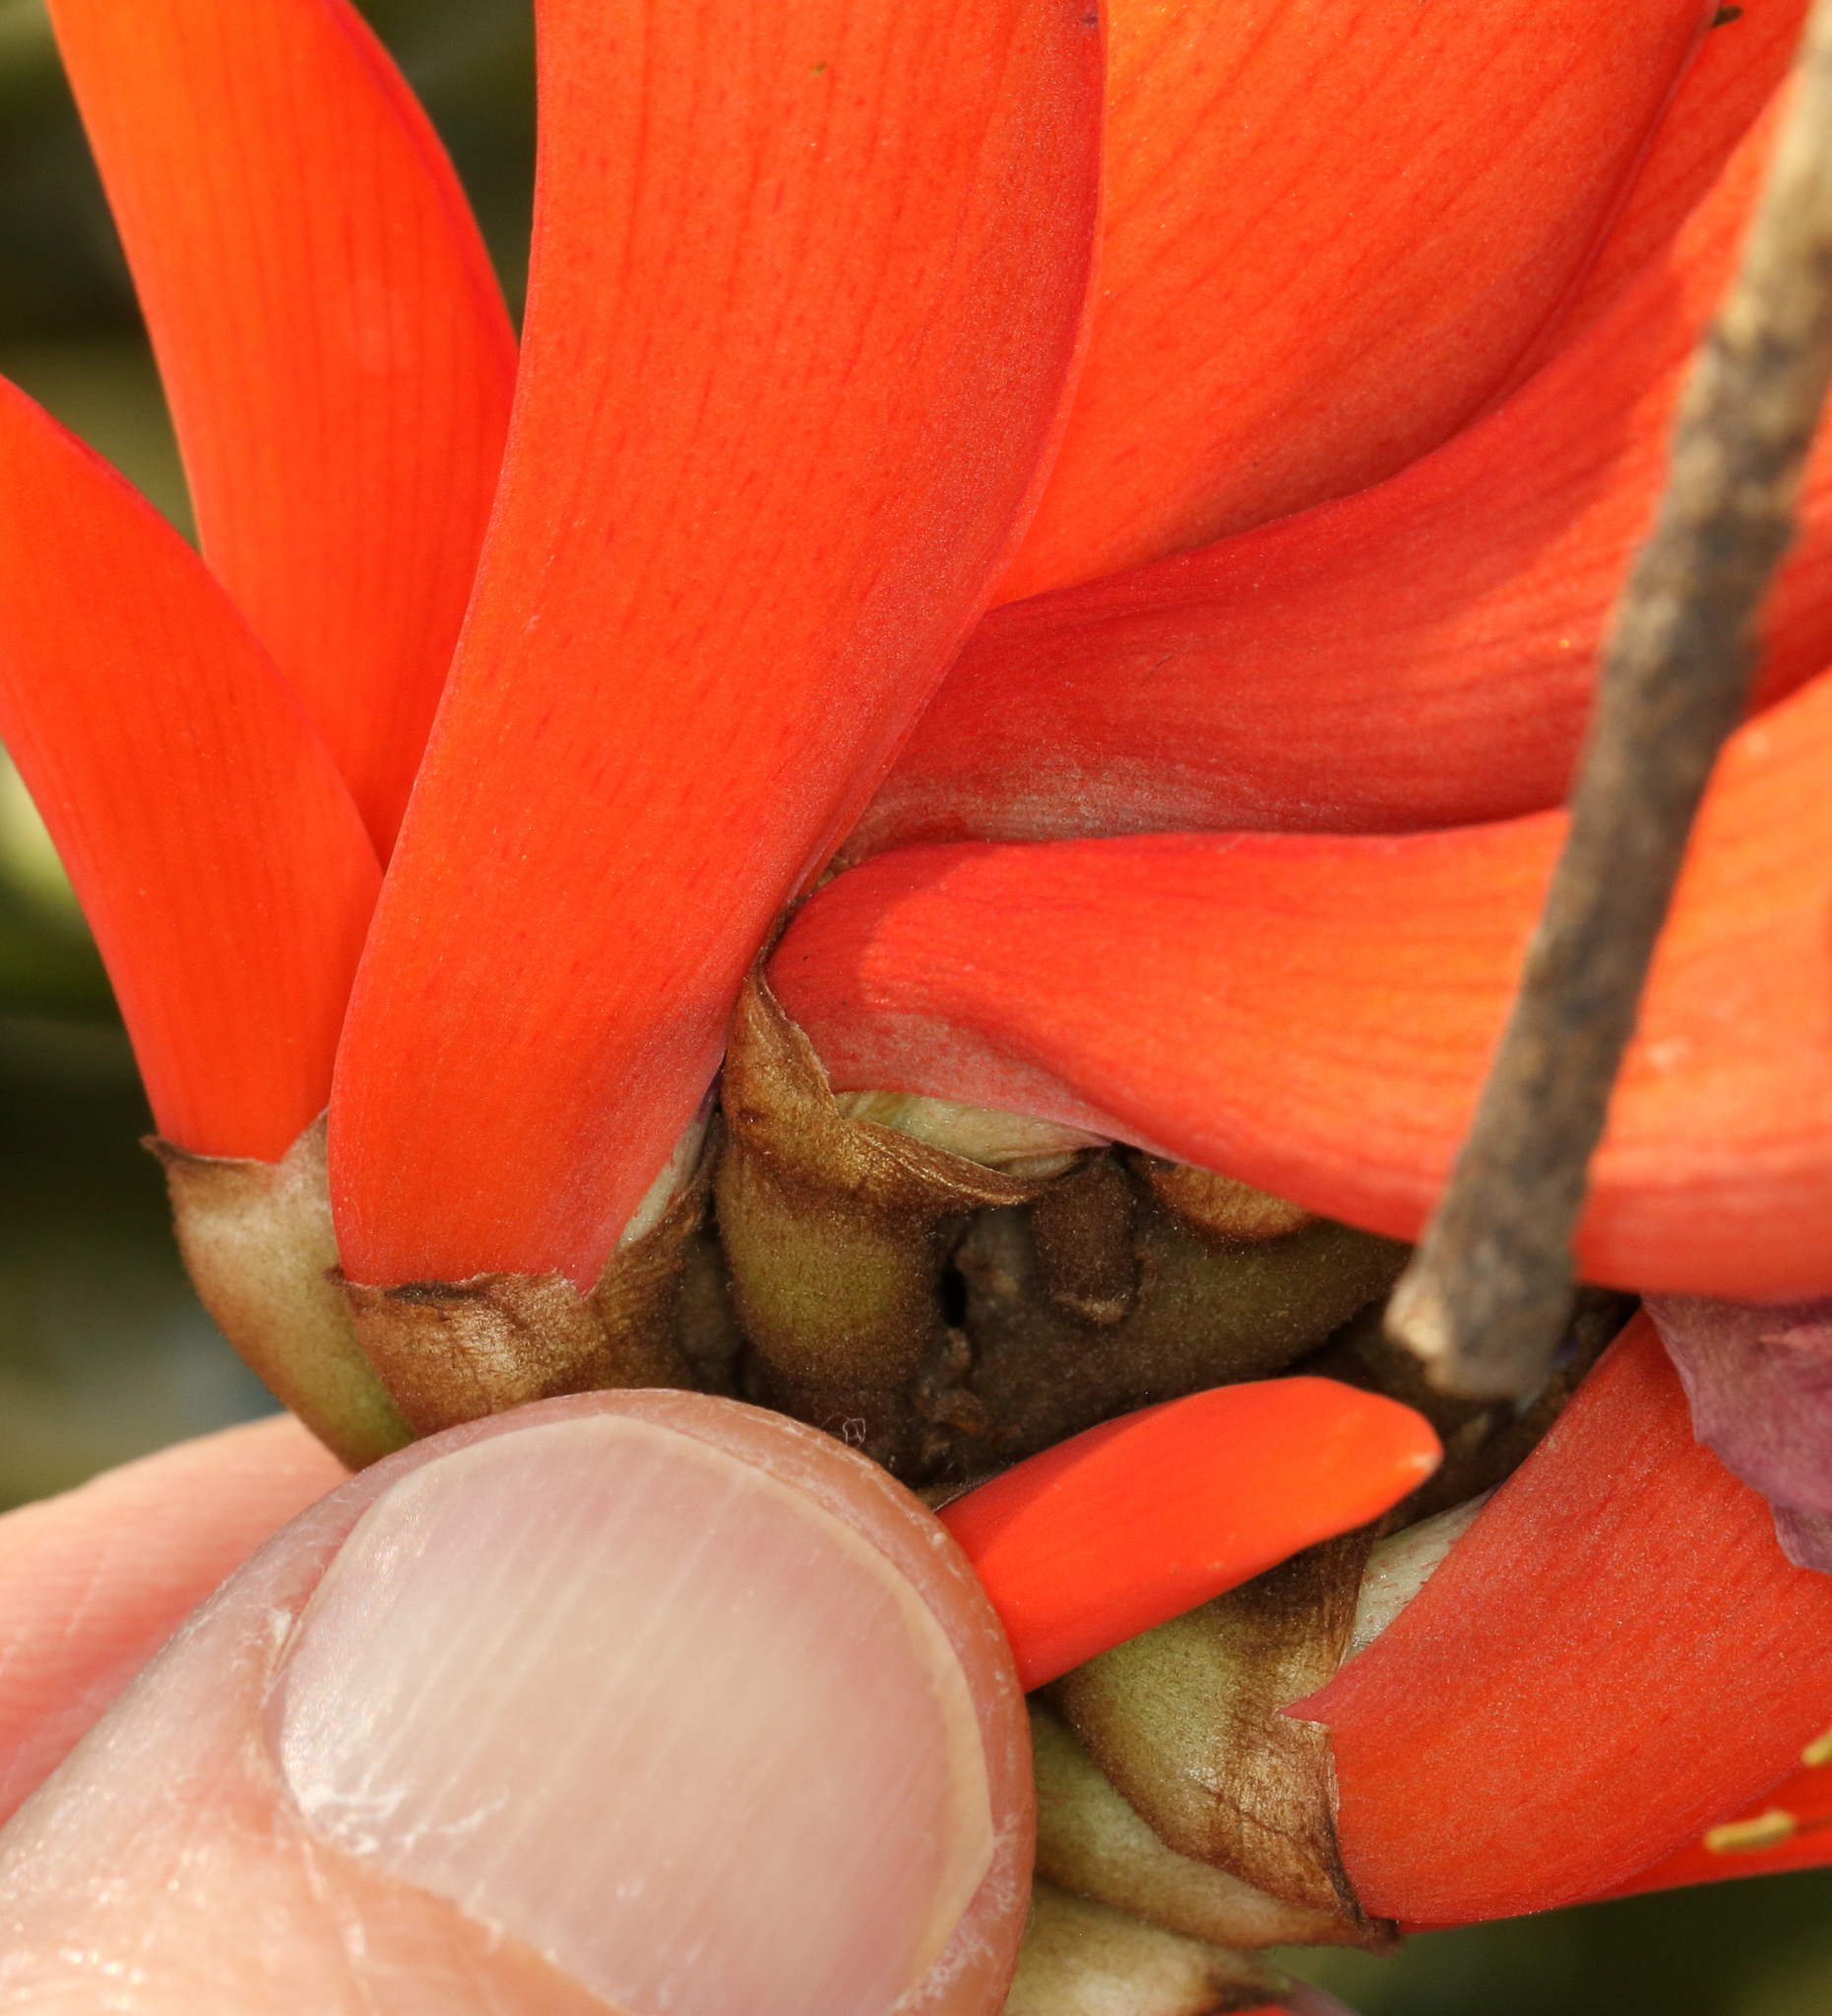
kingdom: Plantae
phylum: Tracheophyta
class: Magnoliopsida
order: Fabales
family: Fabaceae
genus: Erythrina
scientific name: Erythrina lysistemon
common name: Common coral tree
